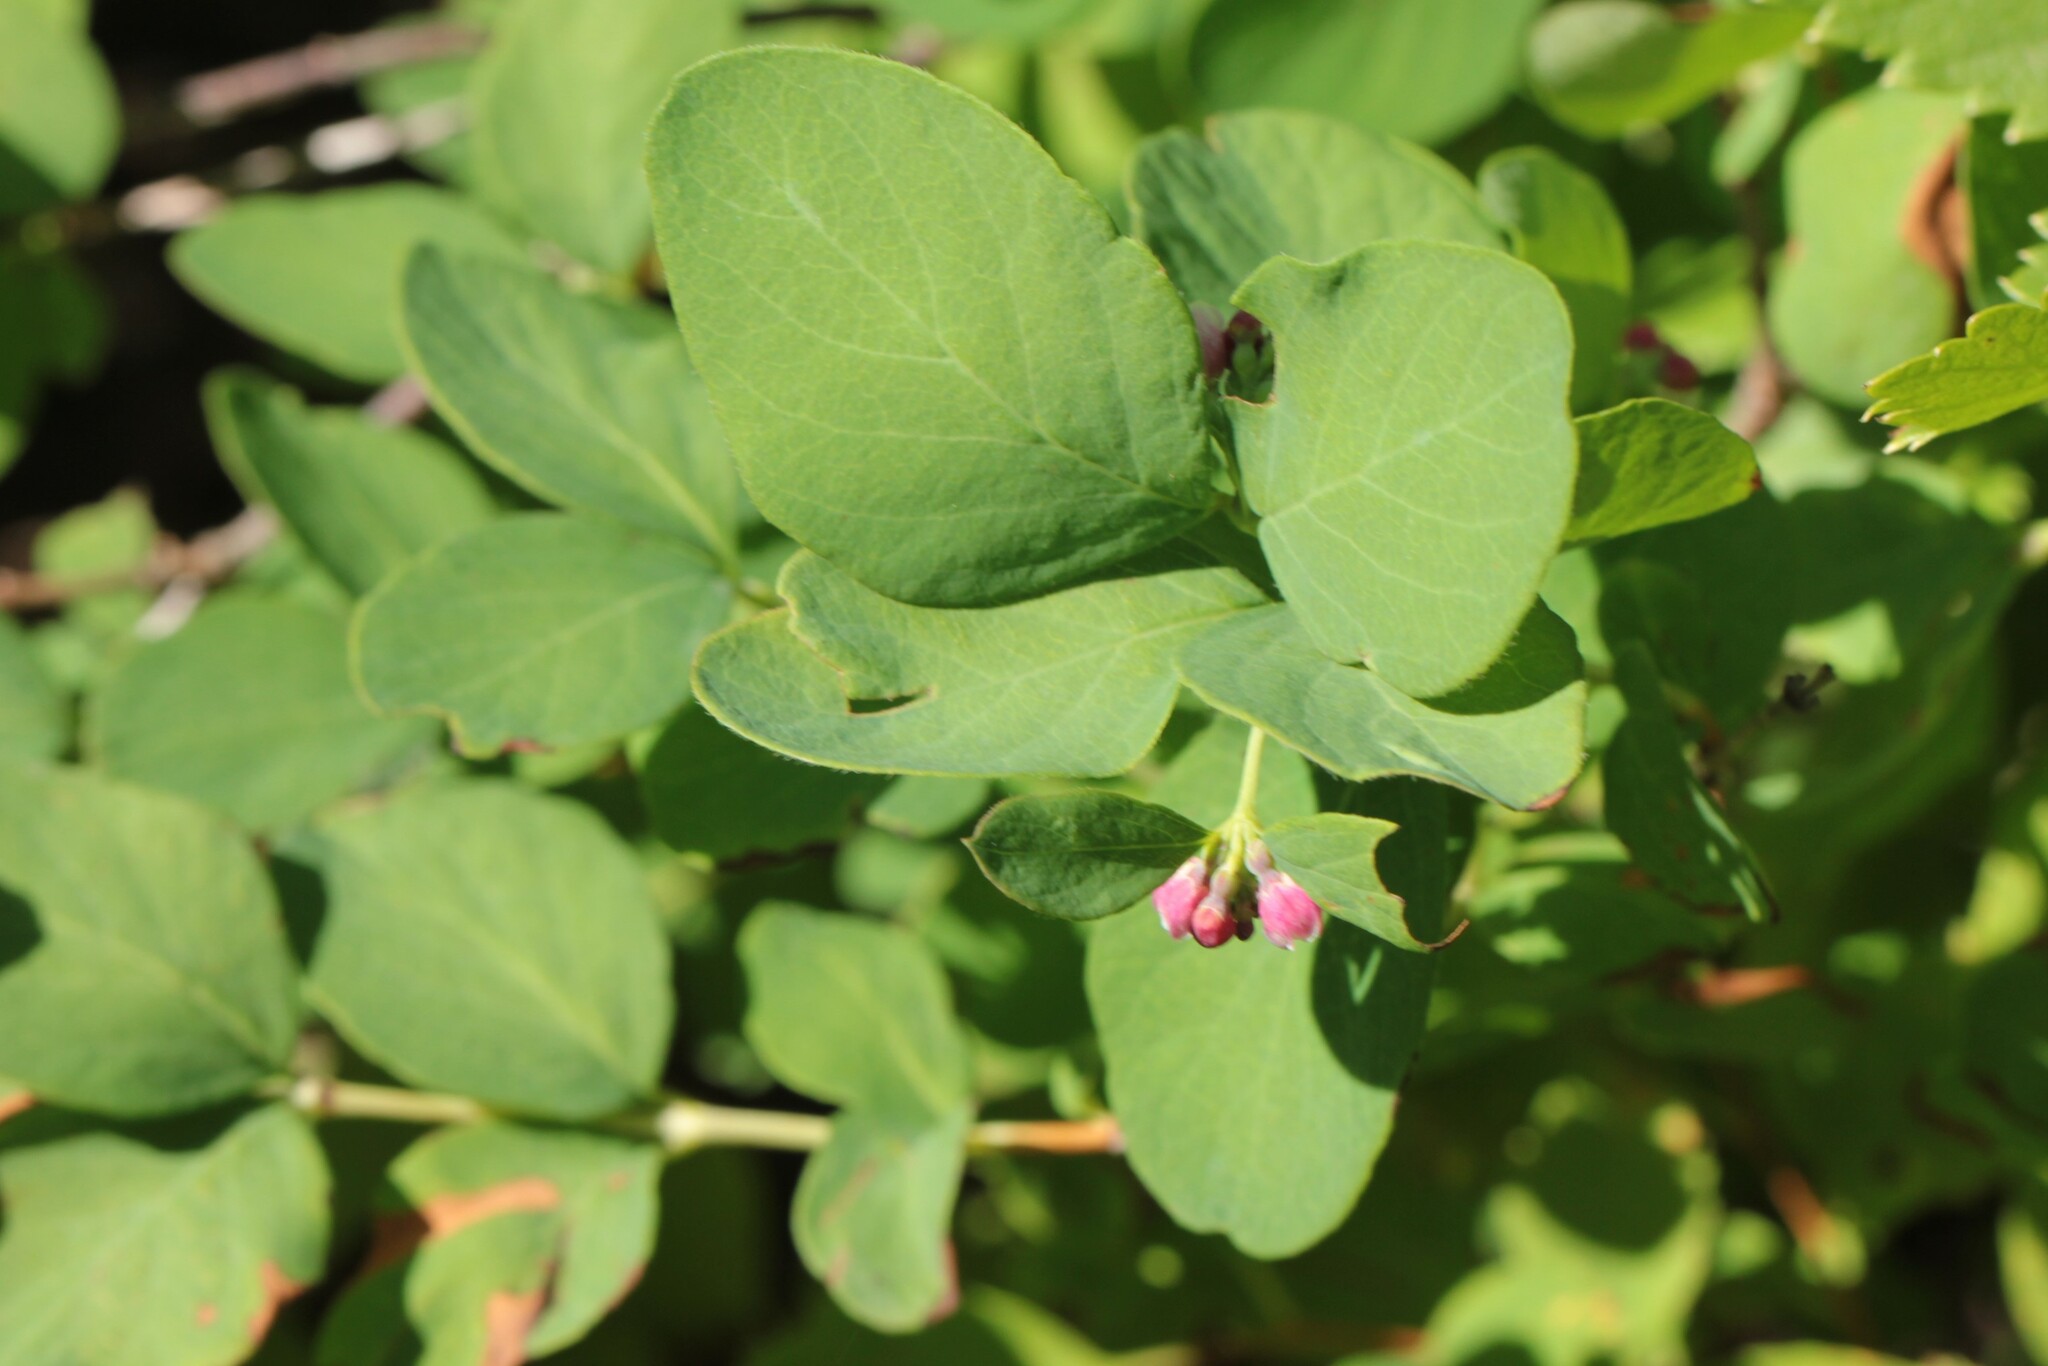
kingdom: Plantae
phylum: Tracheophyta
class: Magnoliopsida
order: Dipsacales
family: Caprifoliaceae
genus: Symphoricarpos
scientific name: Symphoricarpos albus
